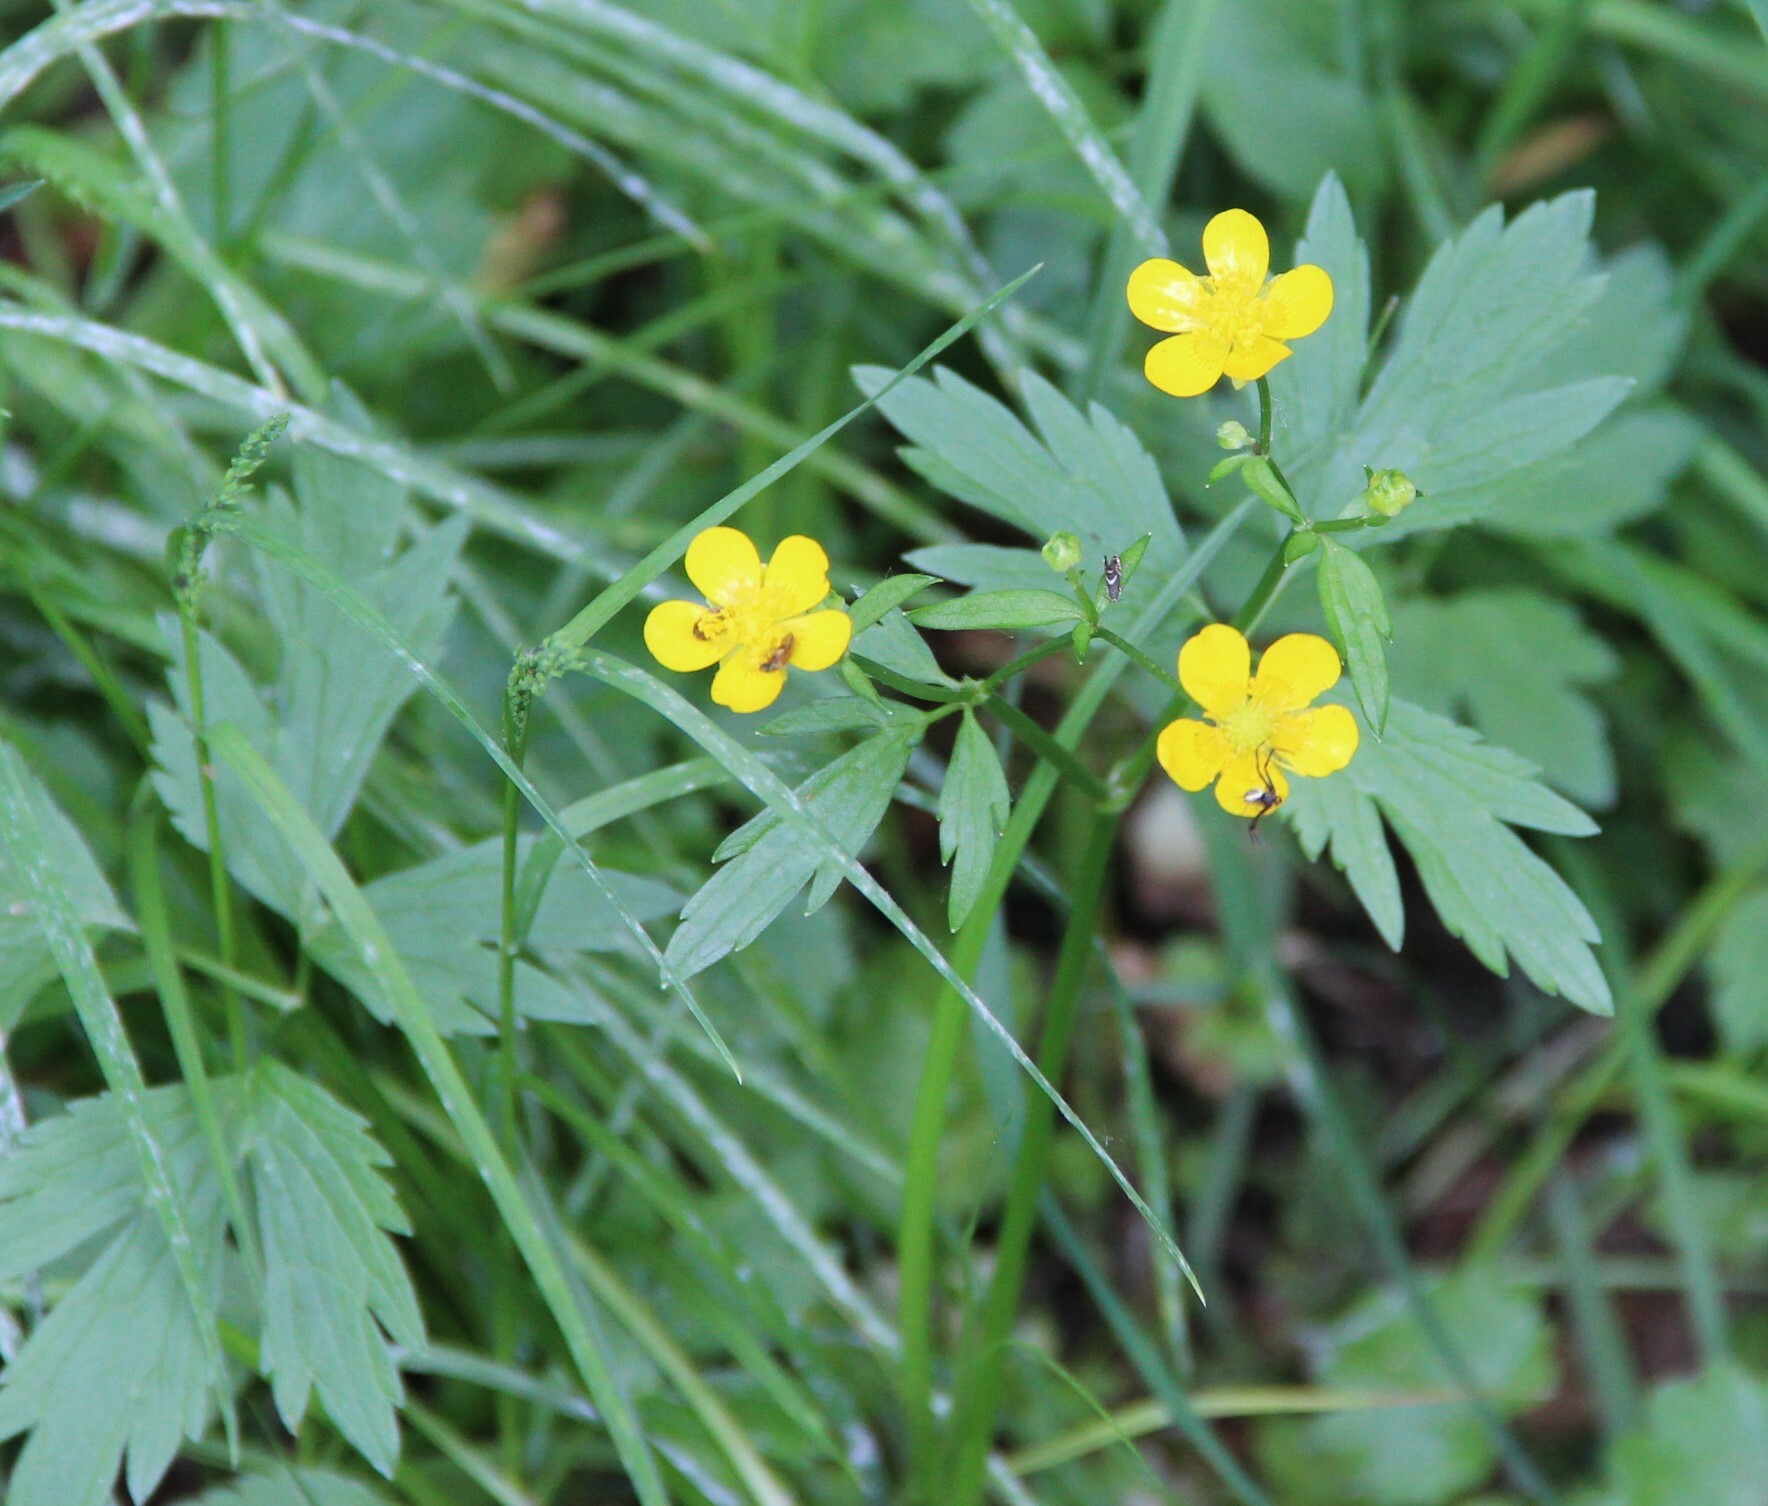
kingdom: Plantae
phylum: Tracheophyta
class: Magnoliopsida
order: Ranunculales
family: Ranunculaceae
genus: Ranunculus
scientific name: Ranunculus repens
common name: Creeping buttercup
